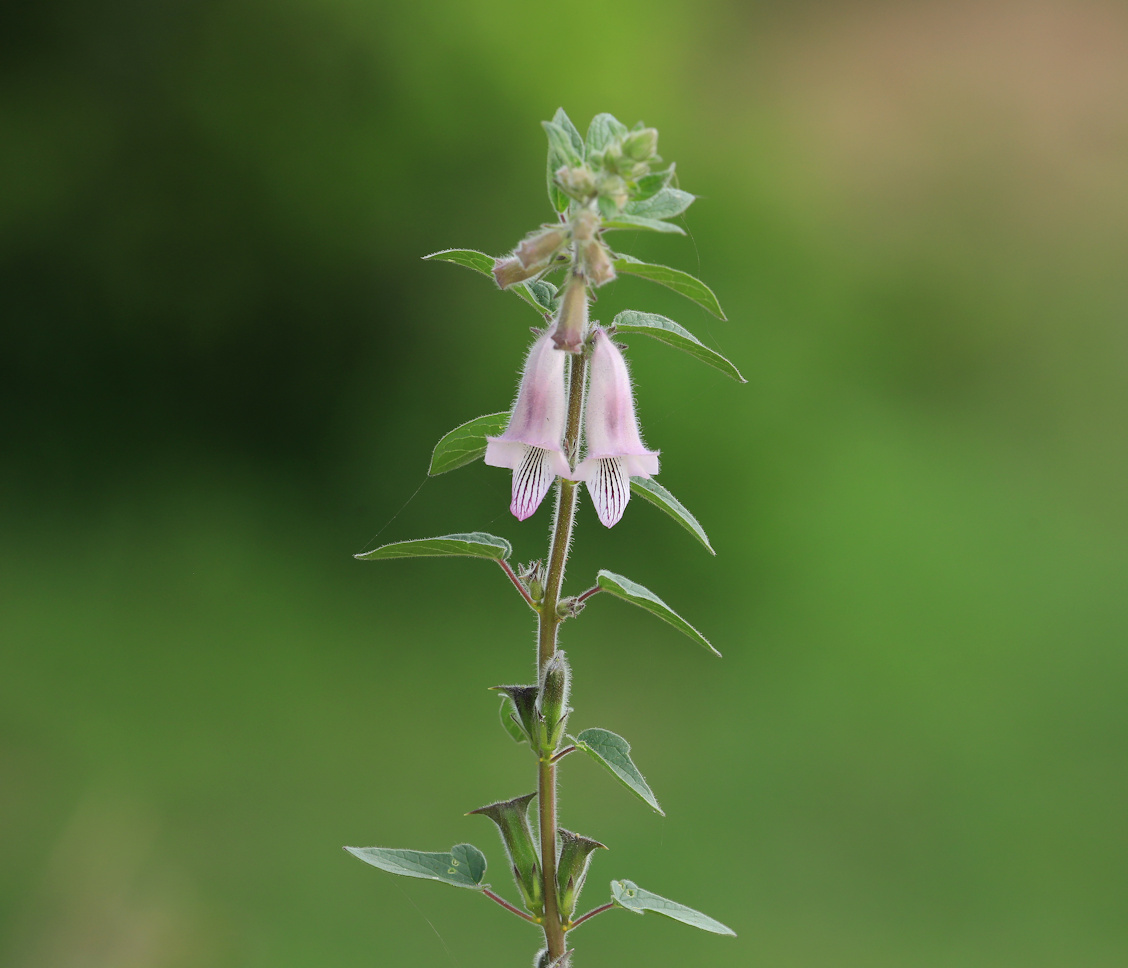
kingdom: Plantae
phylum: Tracheophyta
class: Magnoliopsida
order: Lamiales
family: Pedaliaceae
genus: Sesamum
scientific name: Sesamum trilobum
